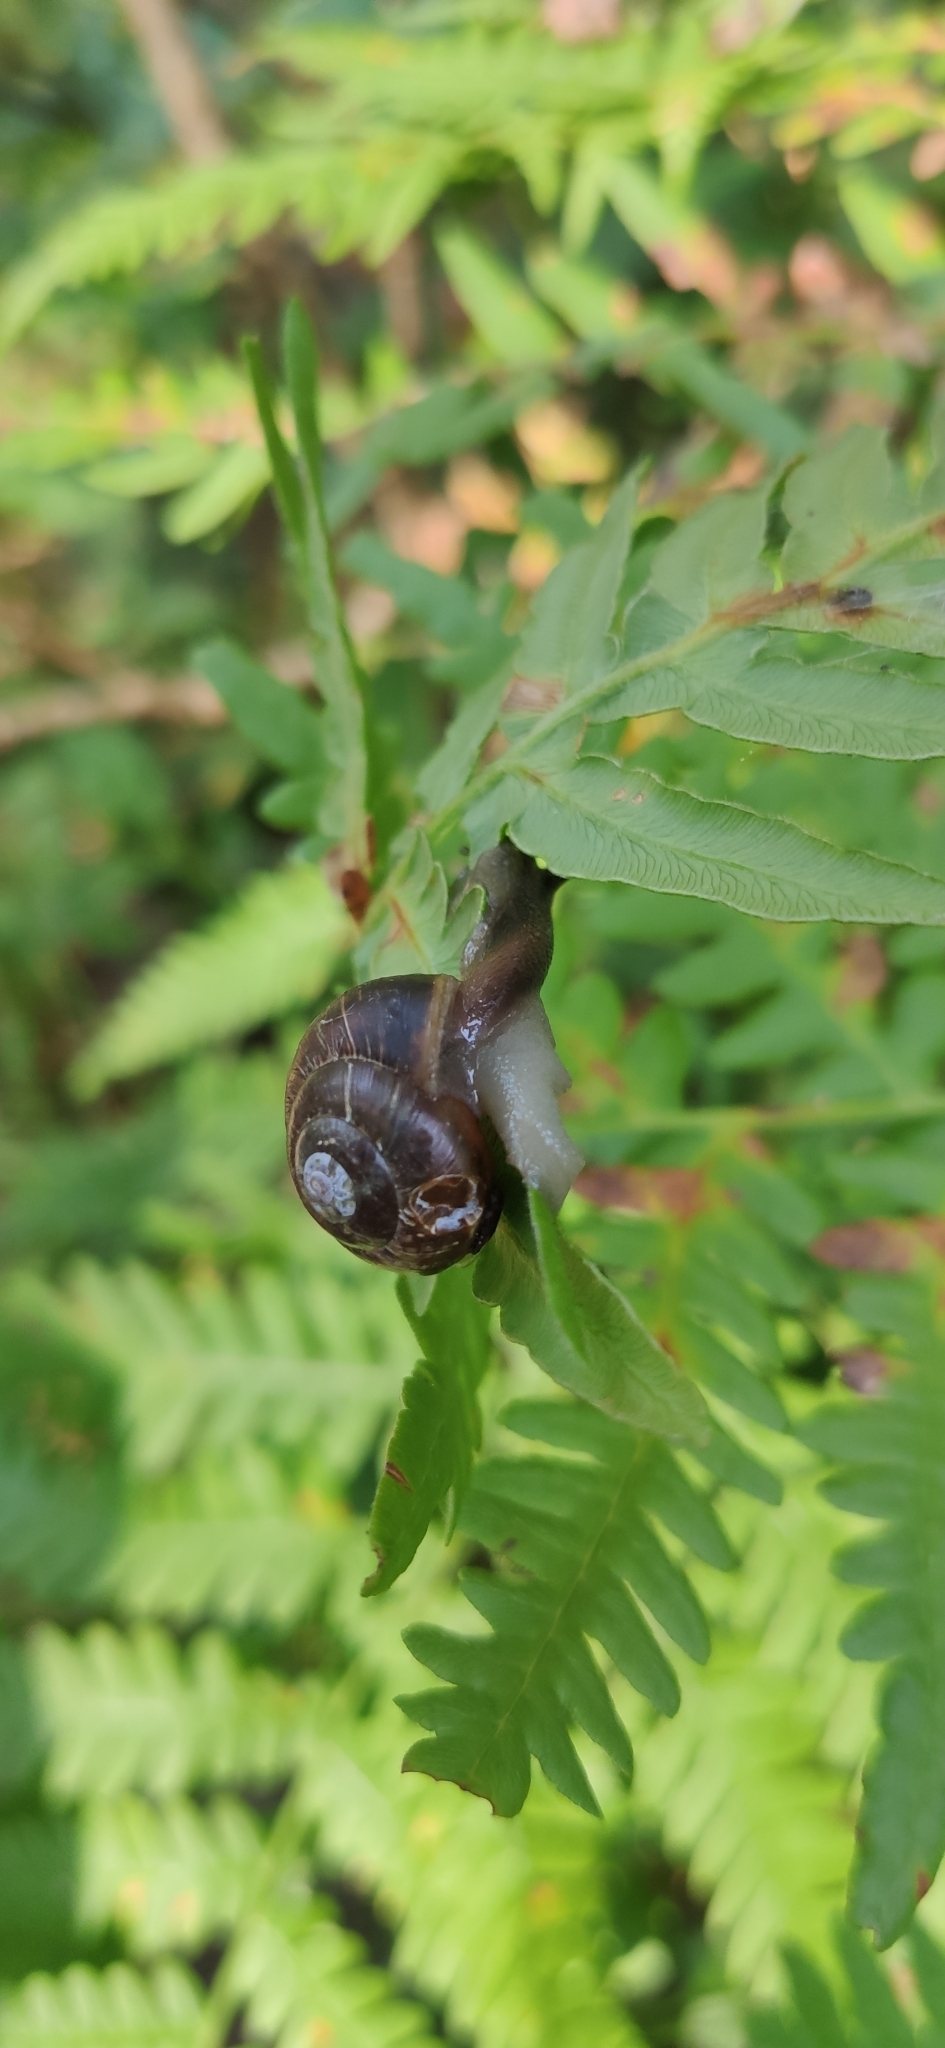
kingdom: Animalia
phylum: Mollusca
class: Gastropoda
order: Stylommatophora
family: Helicidae
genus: Arianta
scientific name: Arianta arbustorum
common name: Copse snail
